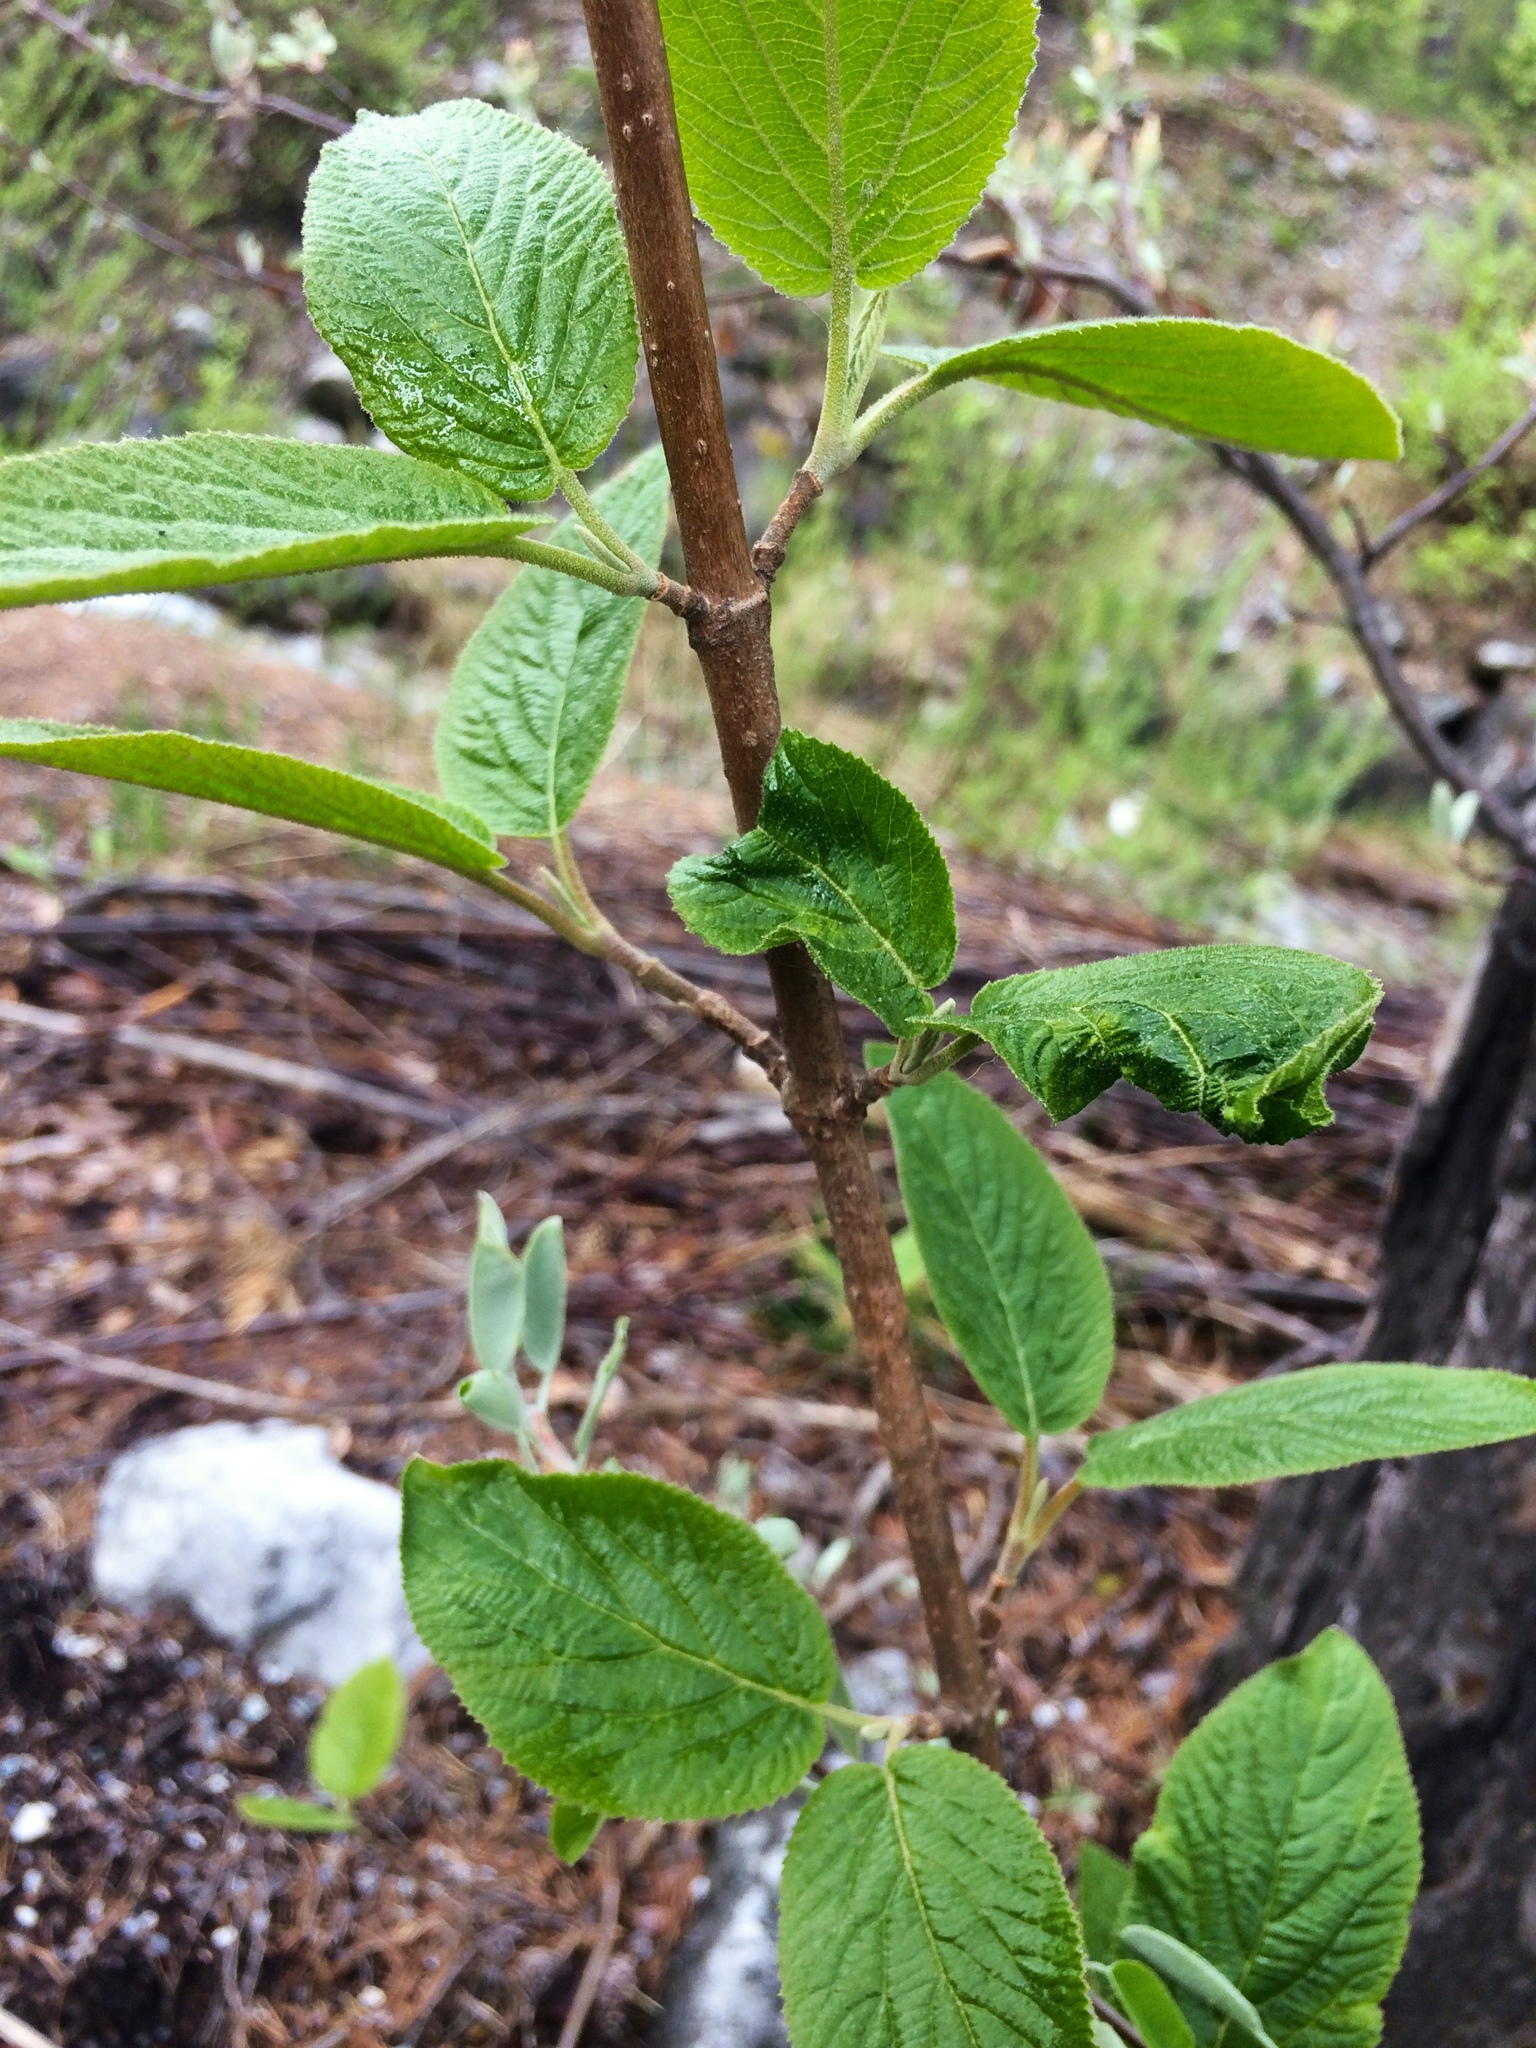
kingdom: Plantae
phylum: Tracheophyta
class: Magnoliopsida
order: Dipsacales
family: Viburnaceae
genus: Viburnum
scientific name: Viburnum lantana
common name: Wayfaring tree
